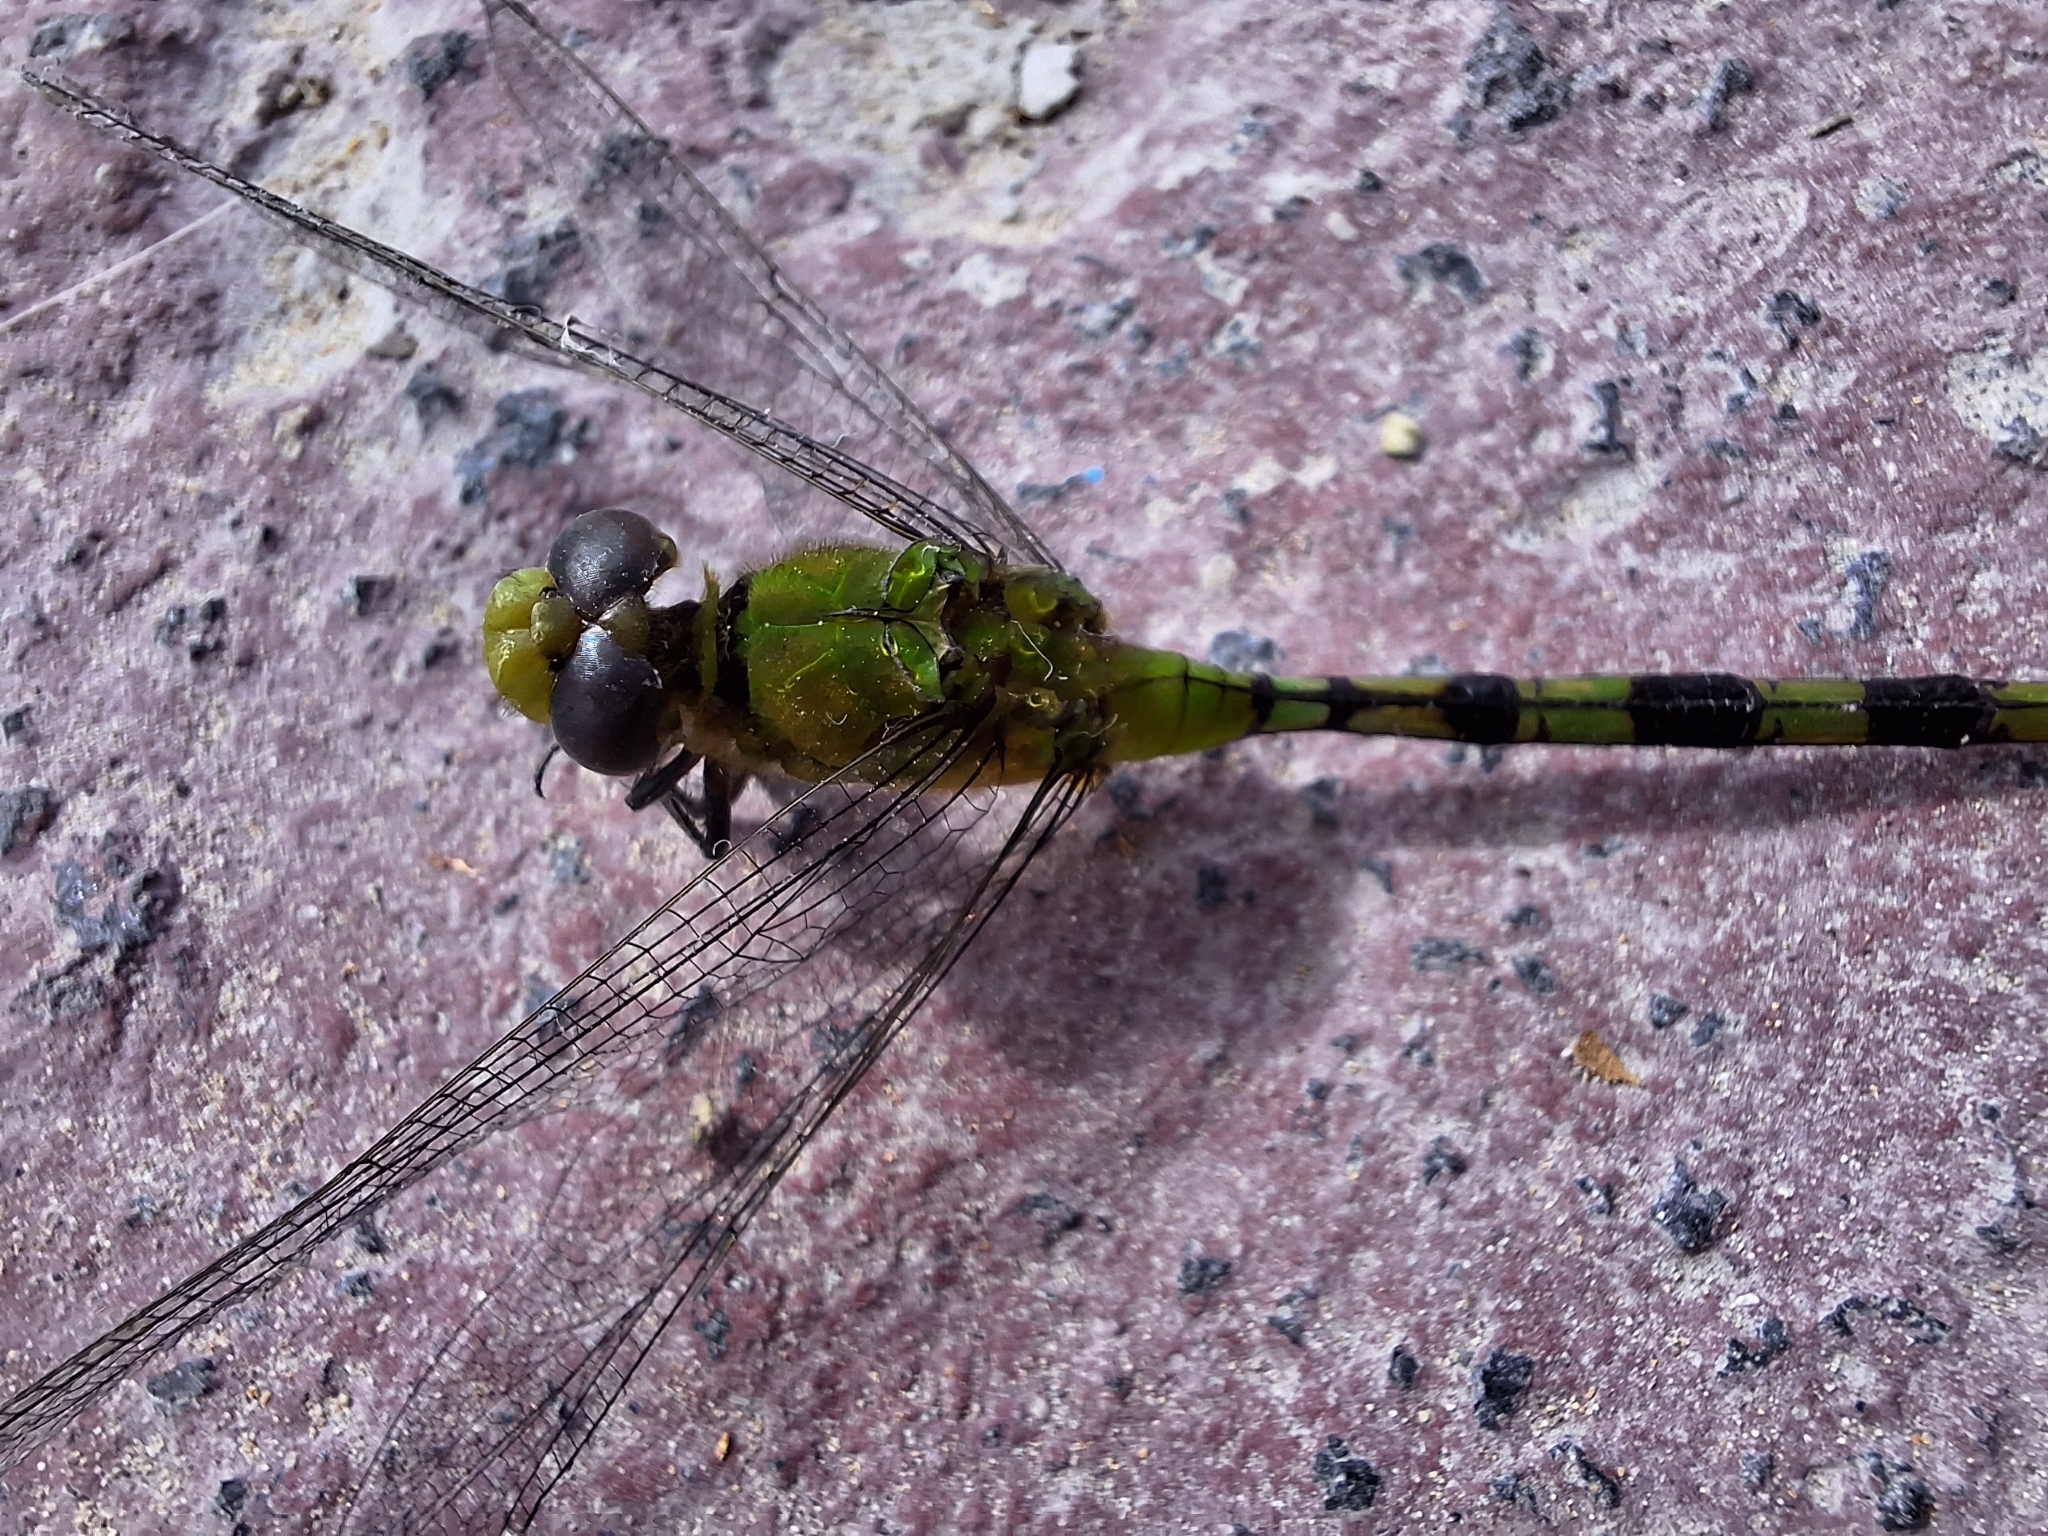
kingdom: Animalia
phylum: Arthropoda
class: Insecta
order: Odonata
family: Libellulidae
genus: Erythemis
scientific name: Erythemis vesiculosa
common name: Great pondhawk
